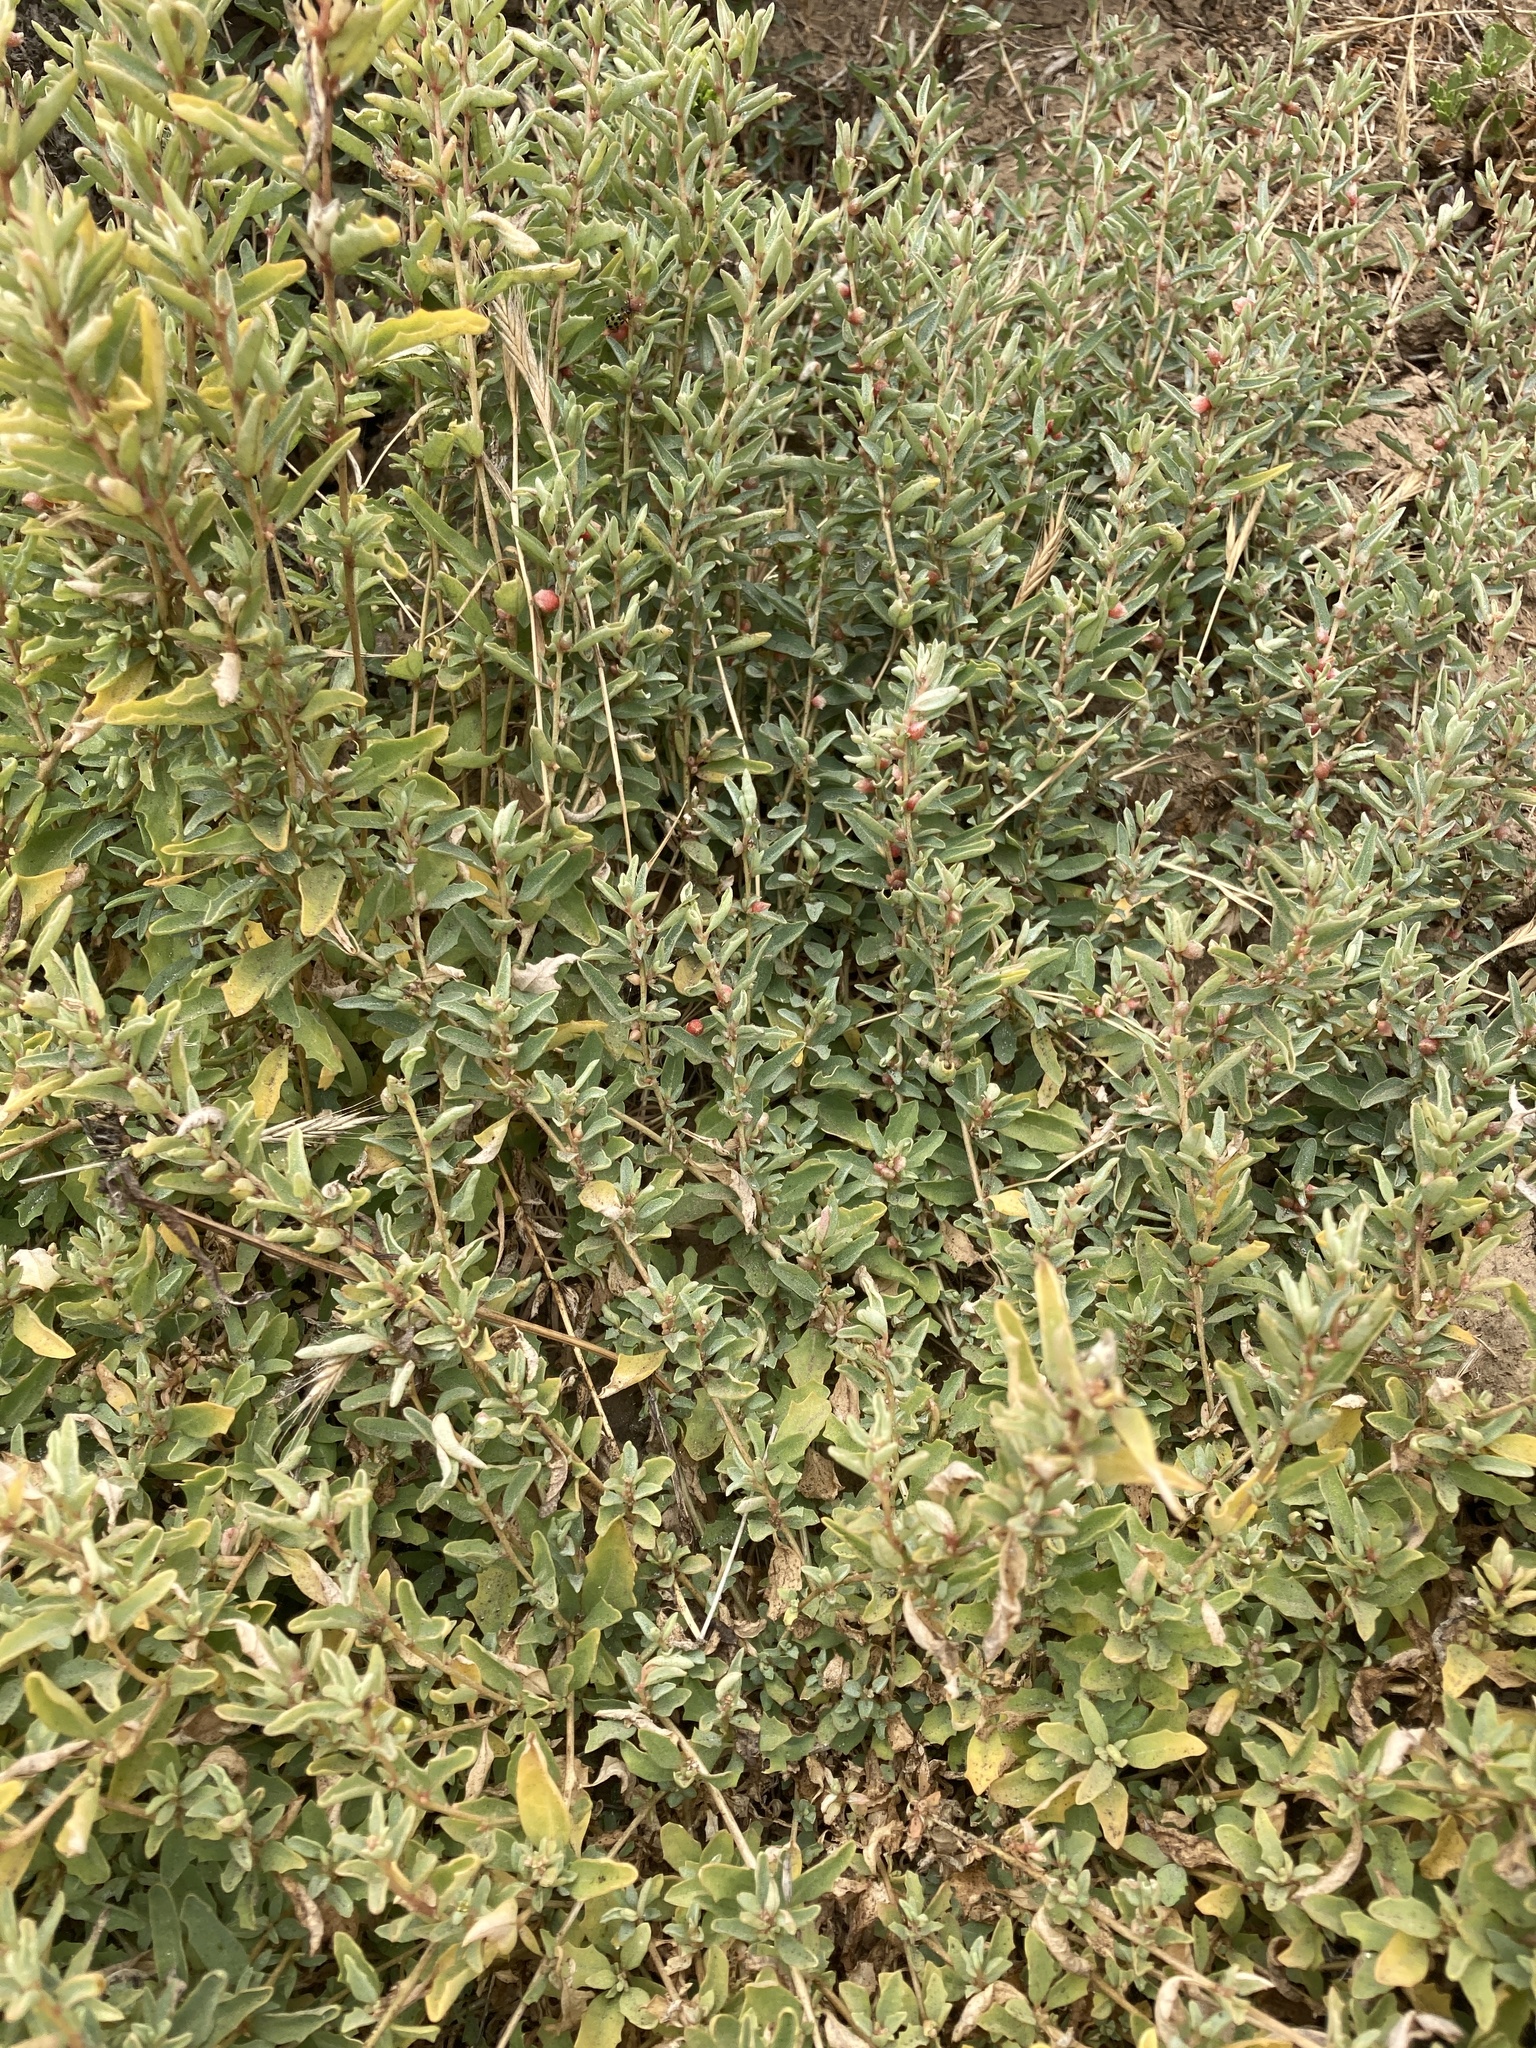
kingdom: Plantae
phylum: Tracheophyta
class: Magnoliopsida
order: Caryophyllales
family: Amaranthaceae
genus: Atriplex
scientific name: Atriplex semibaccata
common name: Australian saltbush
